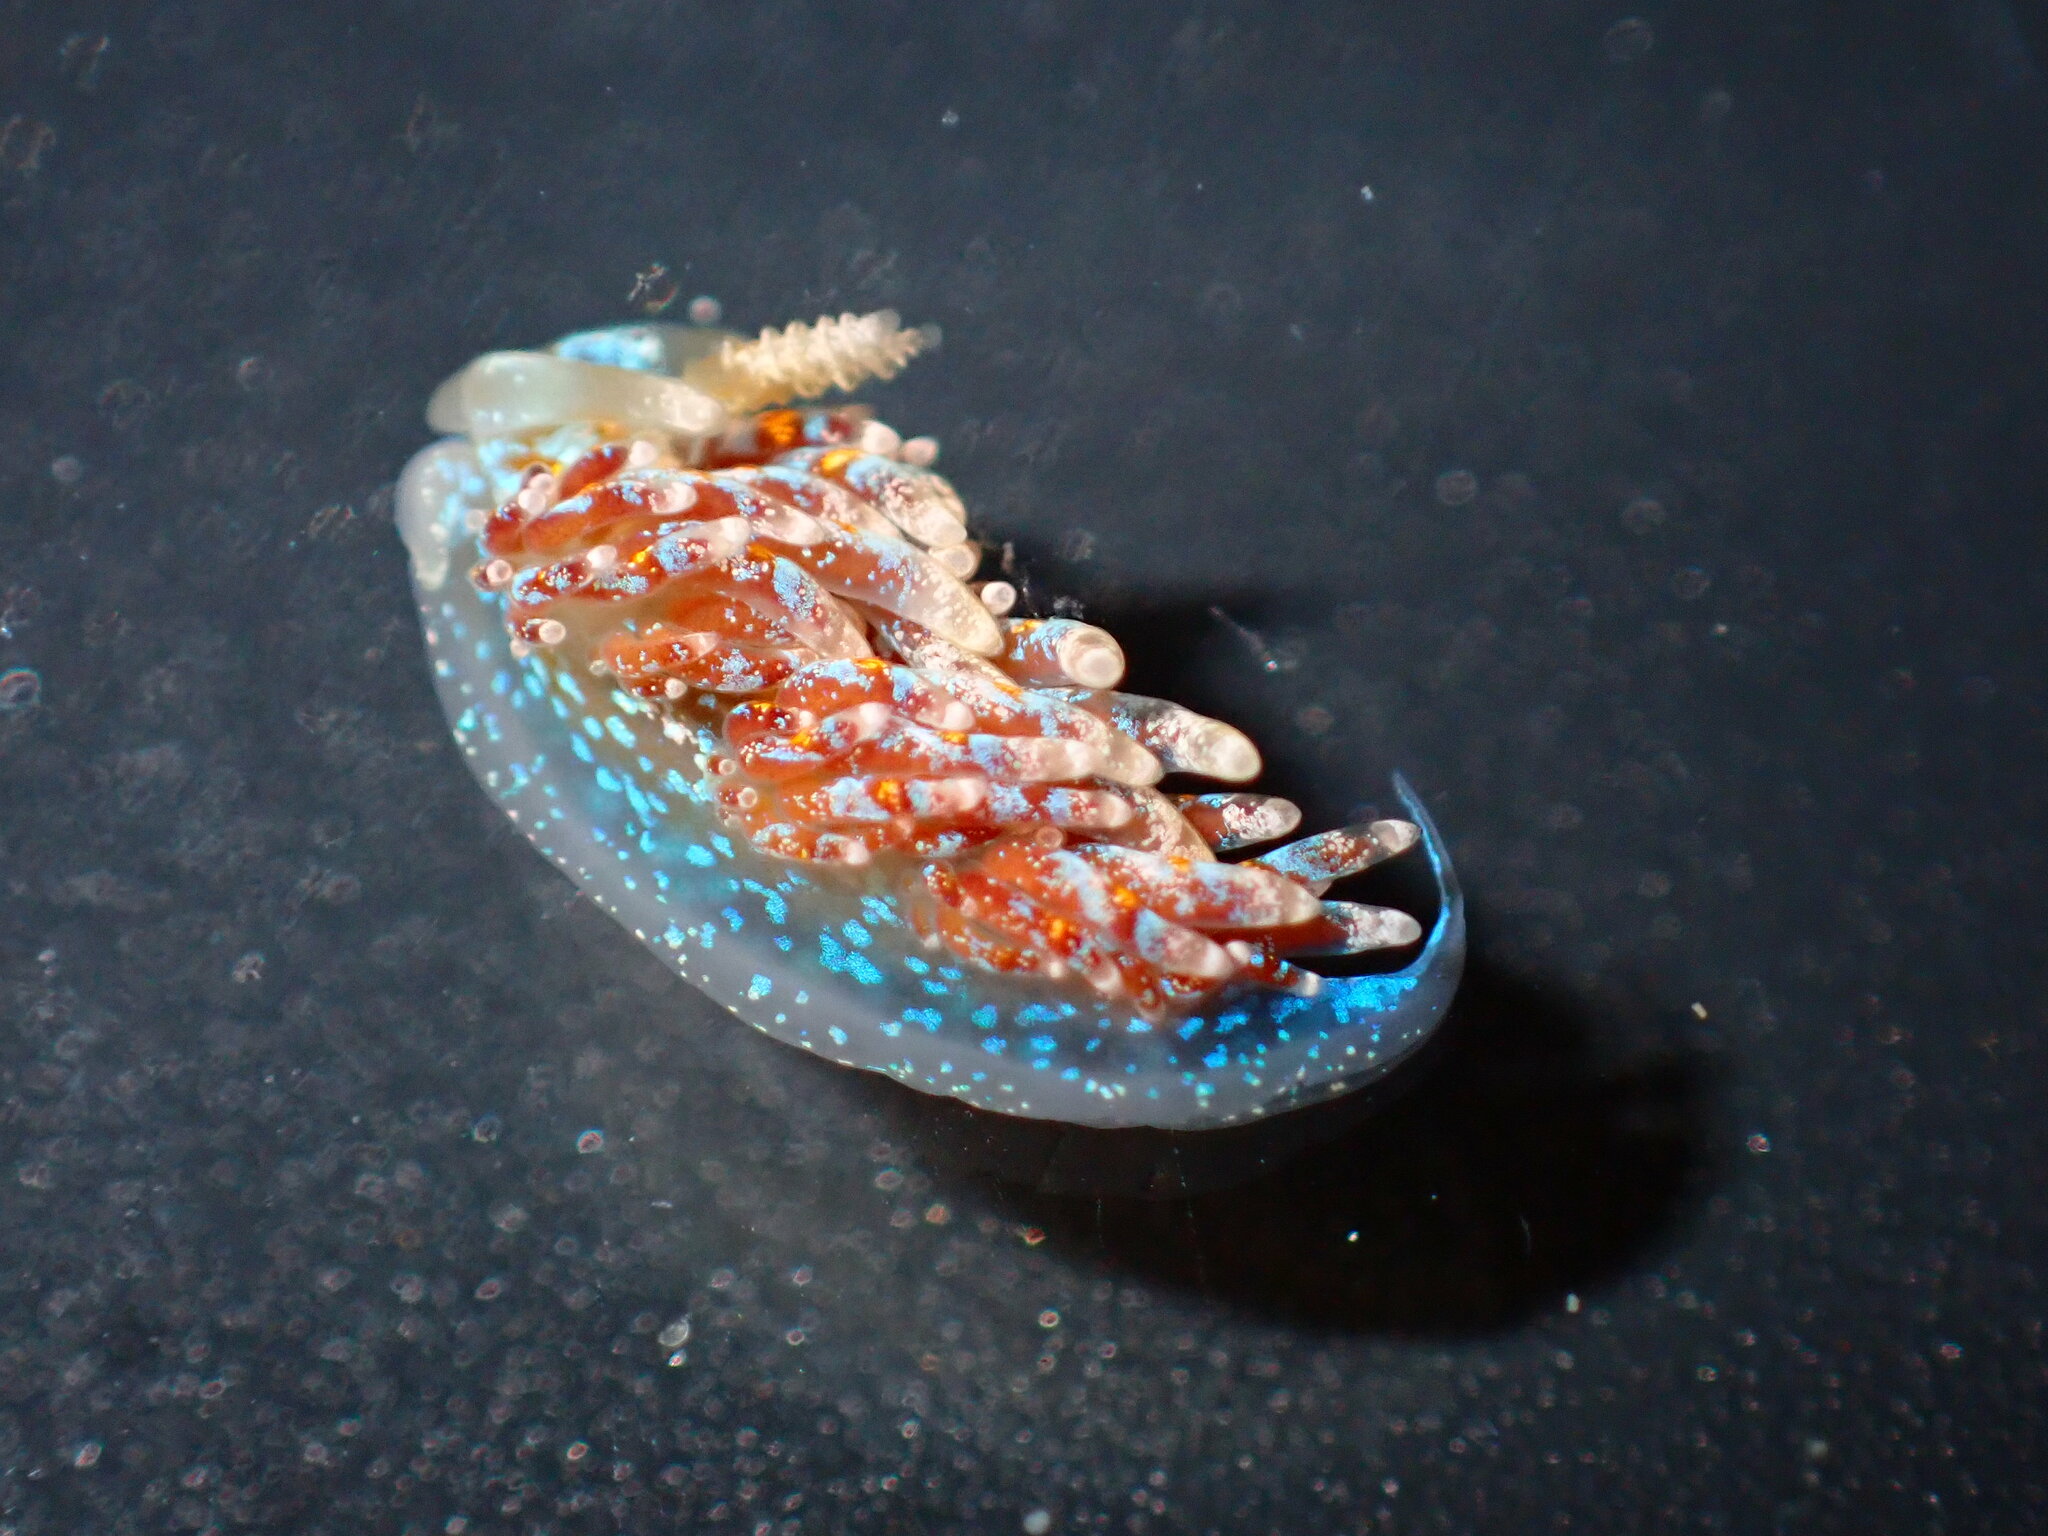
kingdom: Animalia
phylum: Mollusca
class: Gastropoda
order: Nudibranchia
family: Facelinidae
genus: Austraeolis
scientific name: Austraeolis ornata
